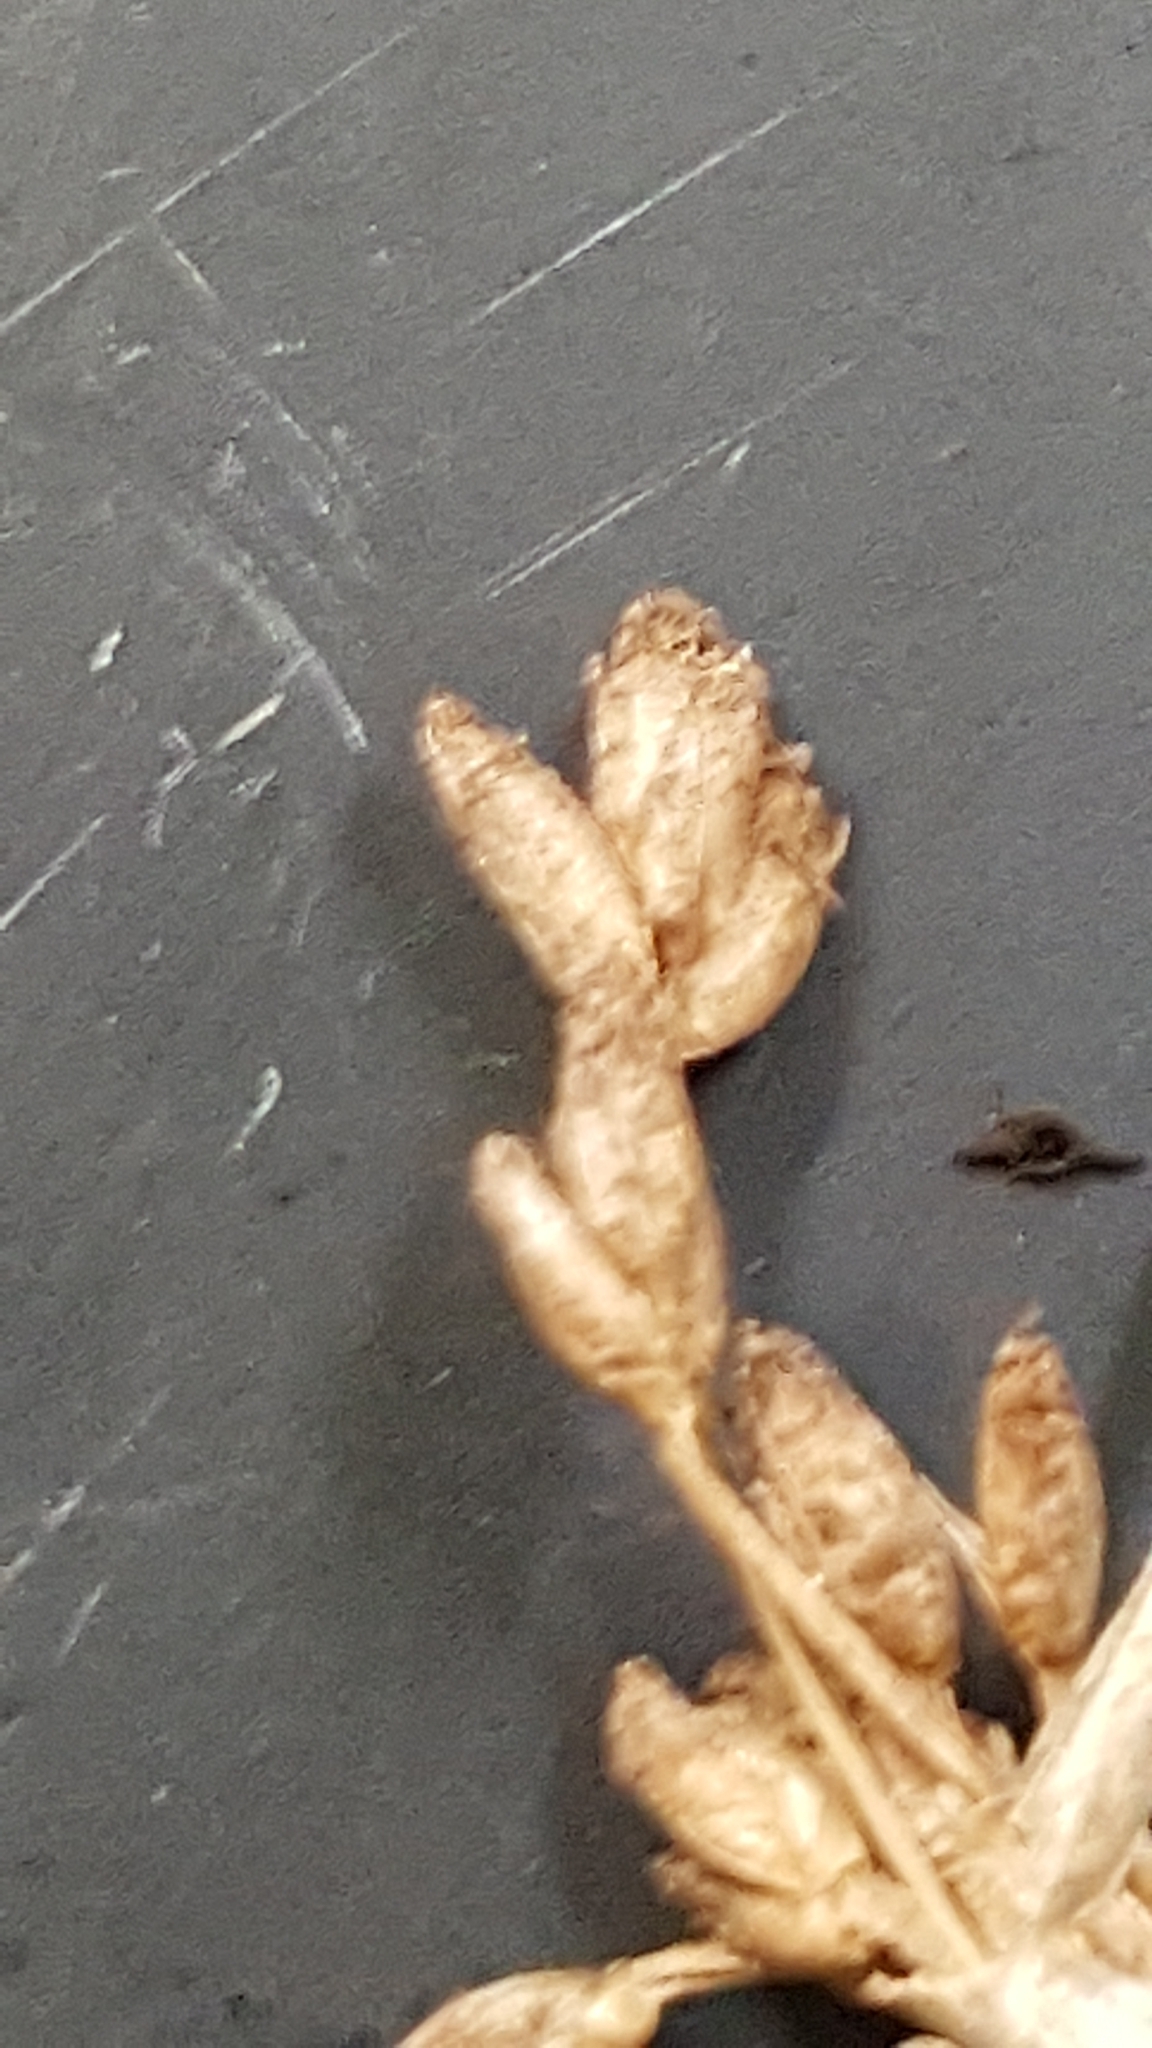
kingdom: Plantae
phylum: Tracheophyta
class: Liliopsida
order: Poales
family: Cyperaceae
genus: Schoenoplectus
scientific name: Schoenoplectus acutus
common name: Hardstem bulrush
